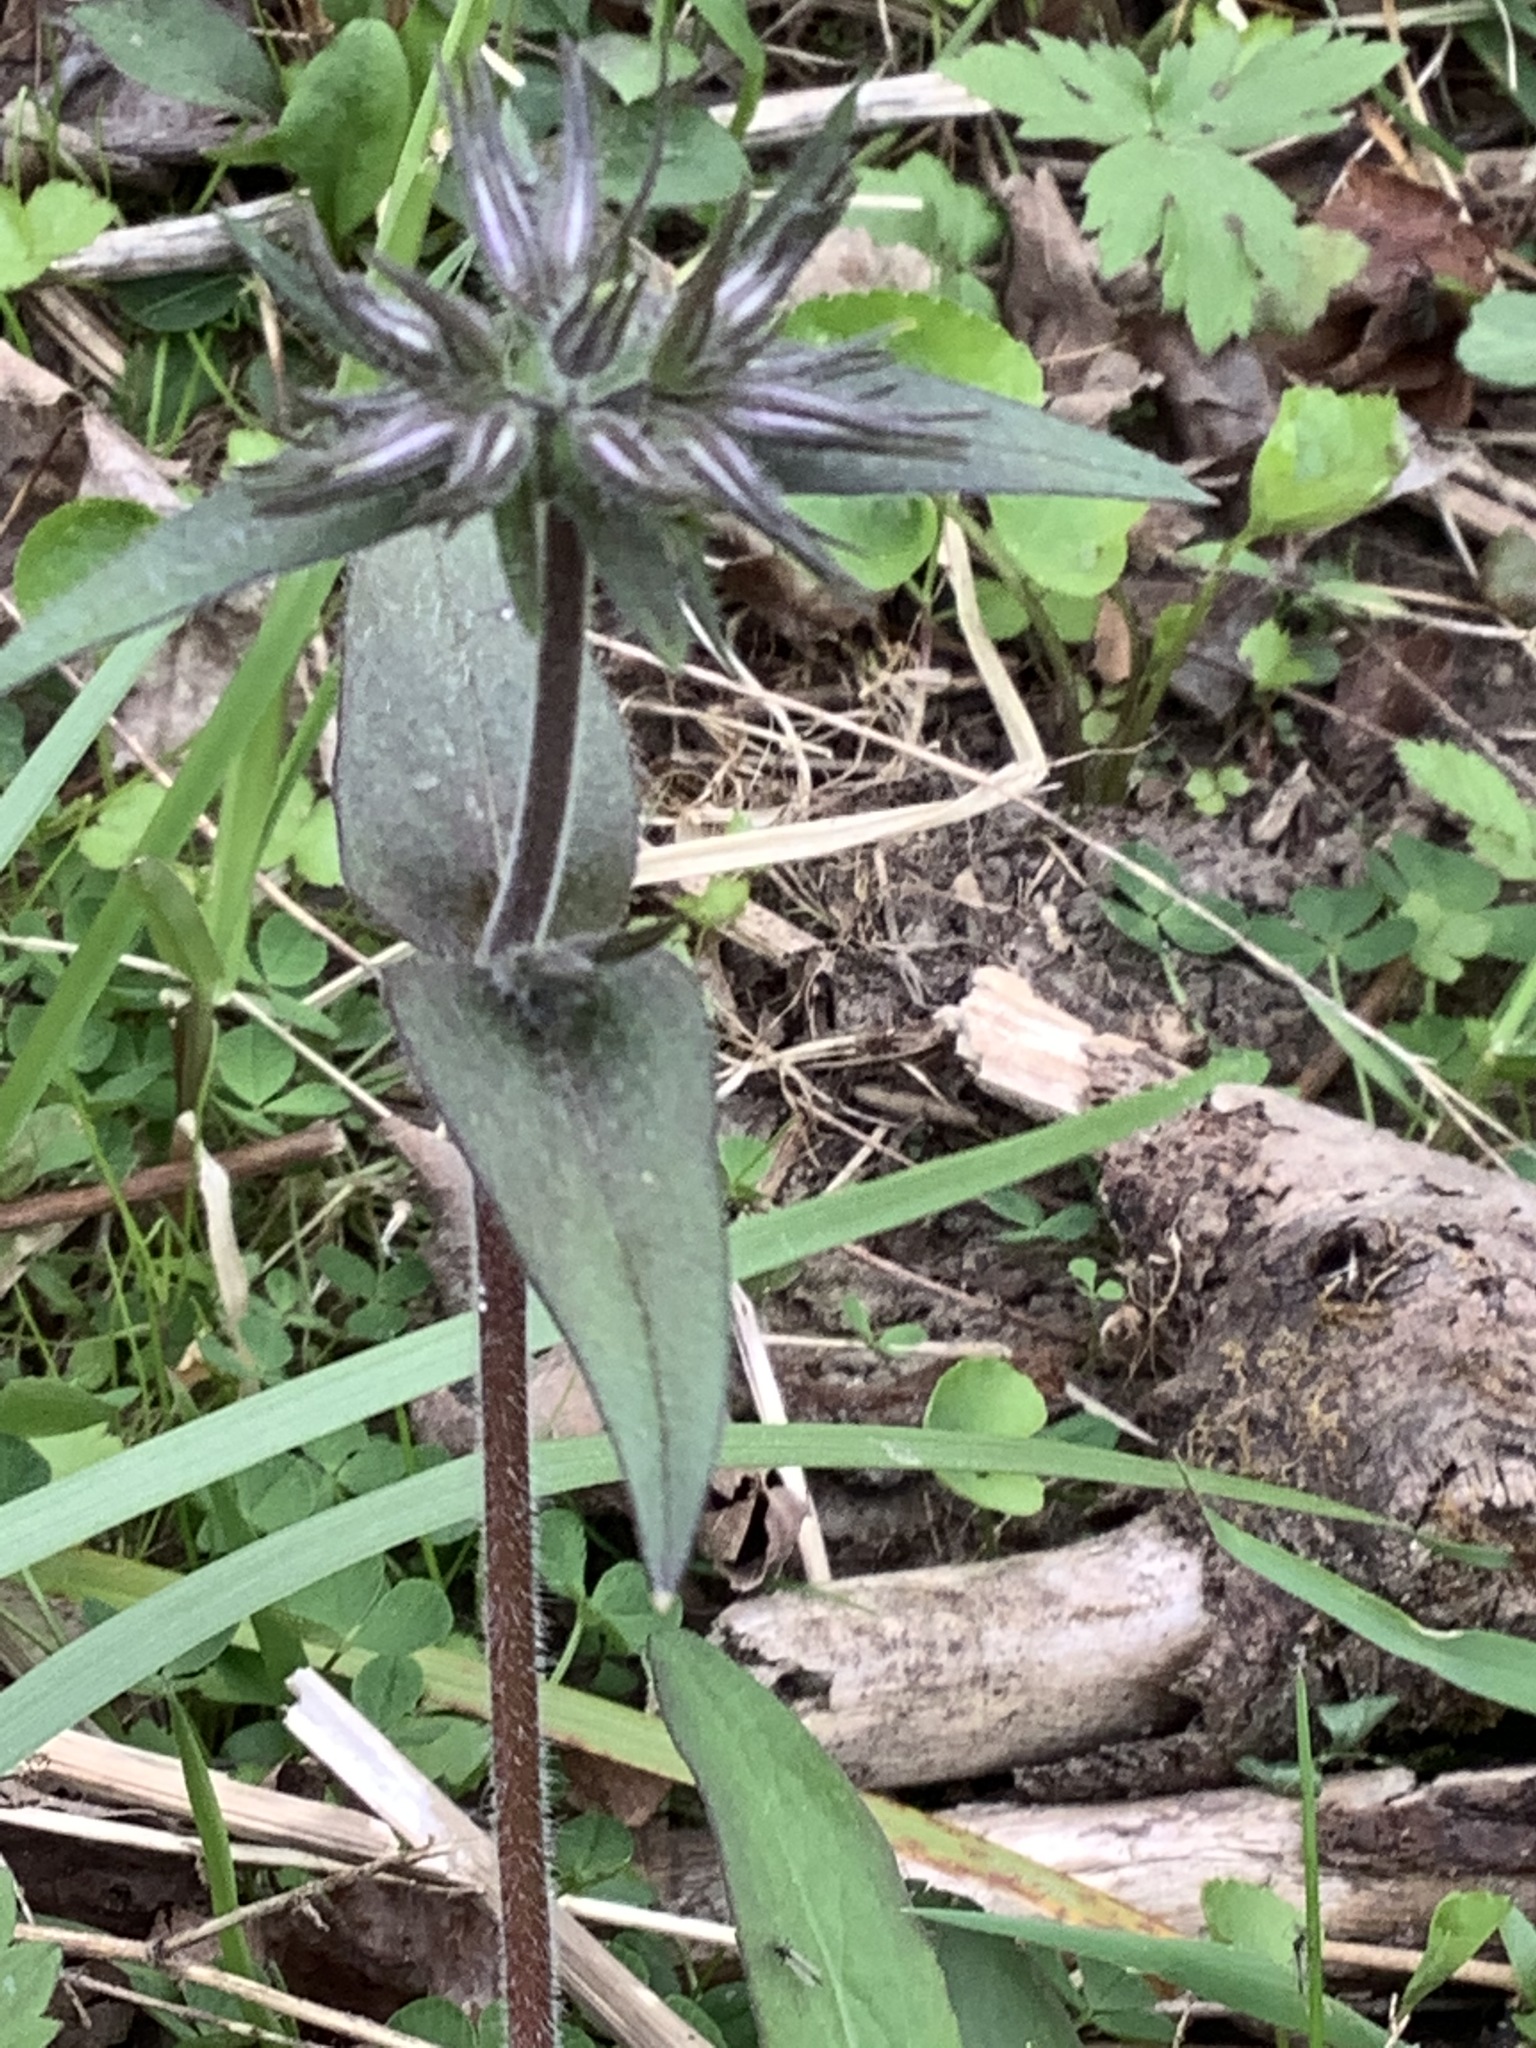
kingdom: Plantae
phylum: Tracheophyta
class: Magnoliopsida
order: Ericales
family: Polemoniaceae
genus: Phlox
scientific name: Phlox divaricata
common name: Blue phlox
